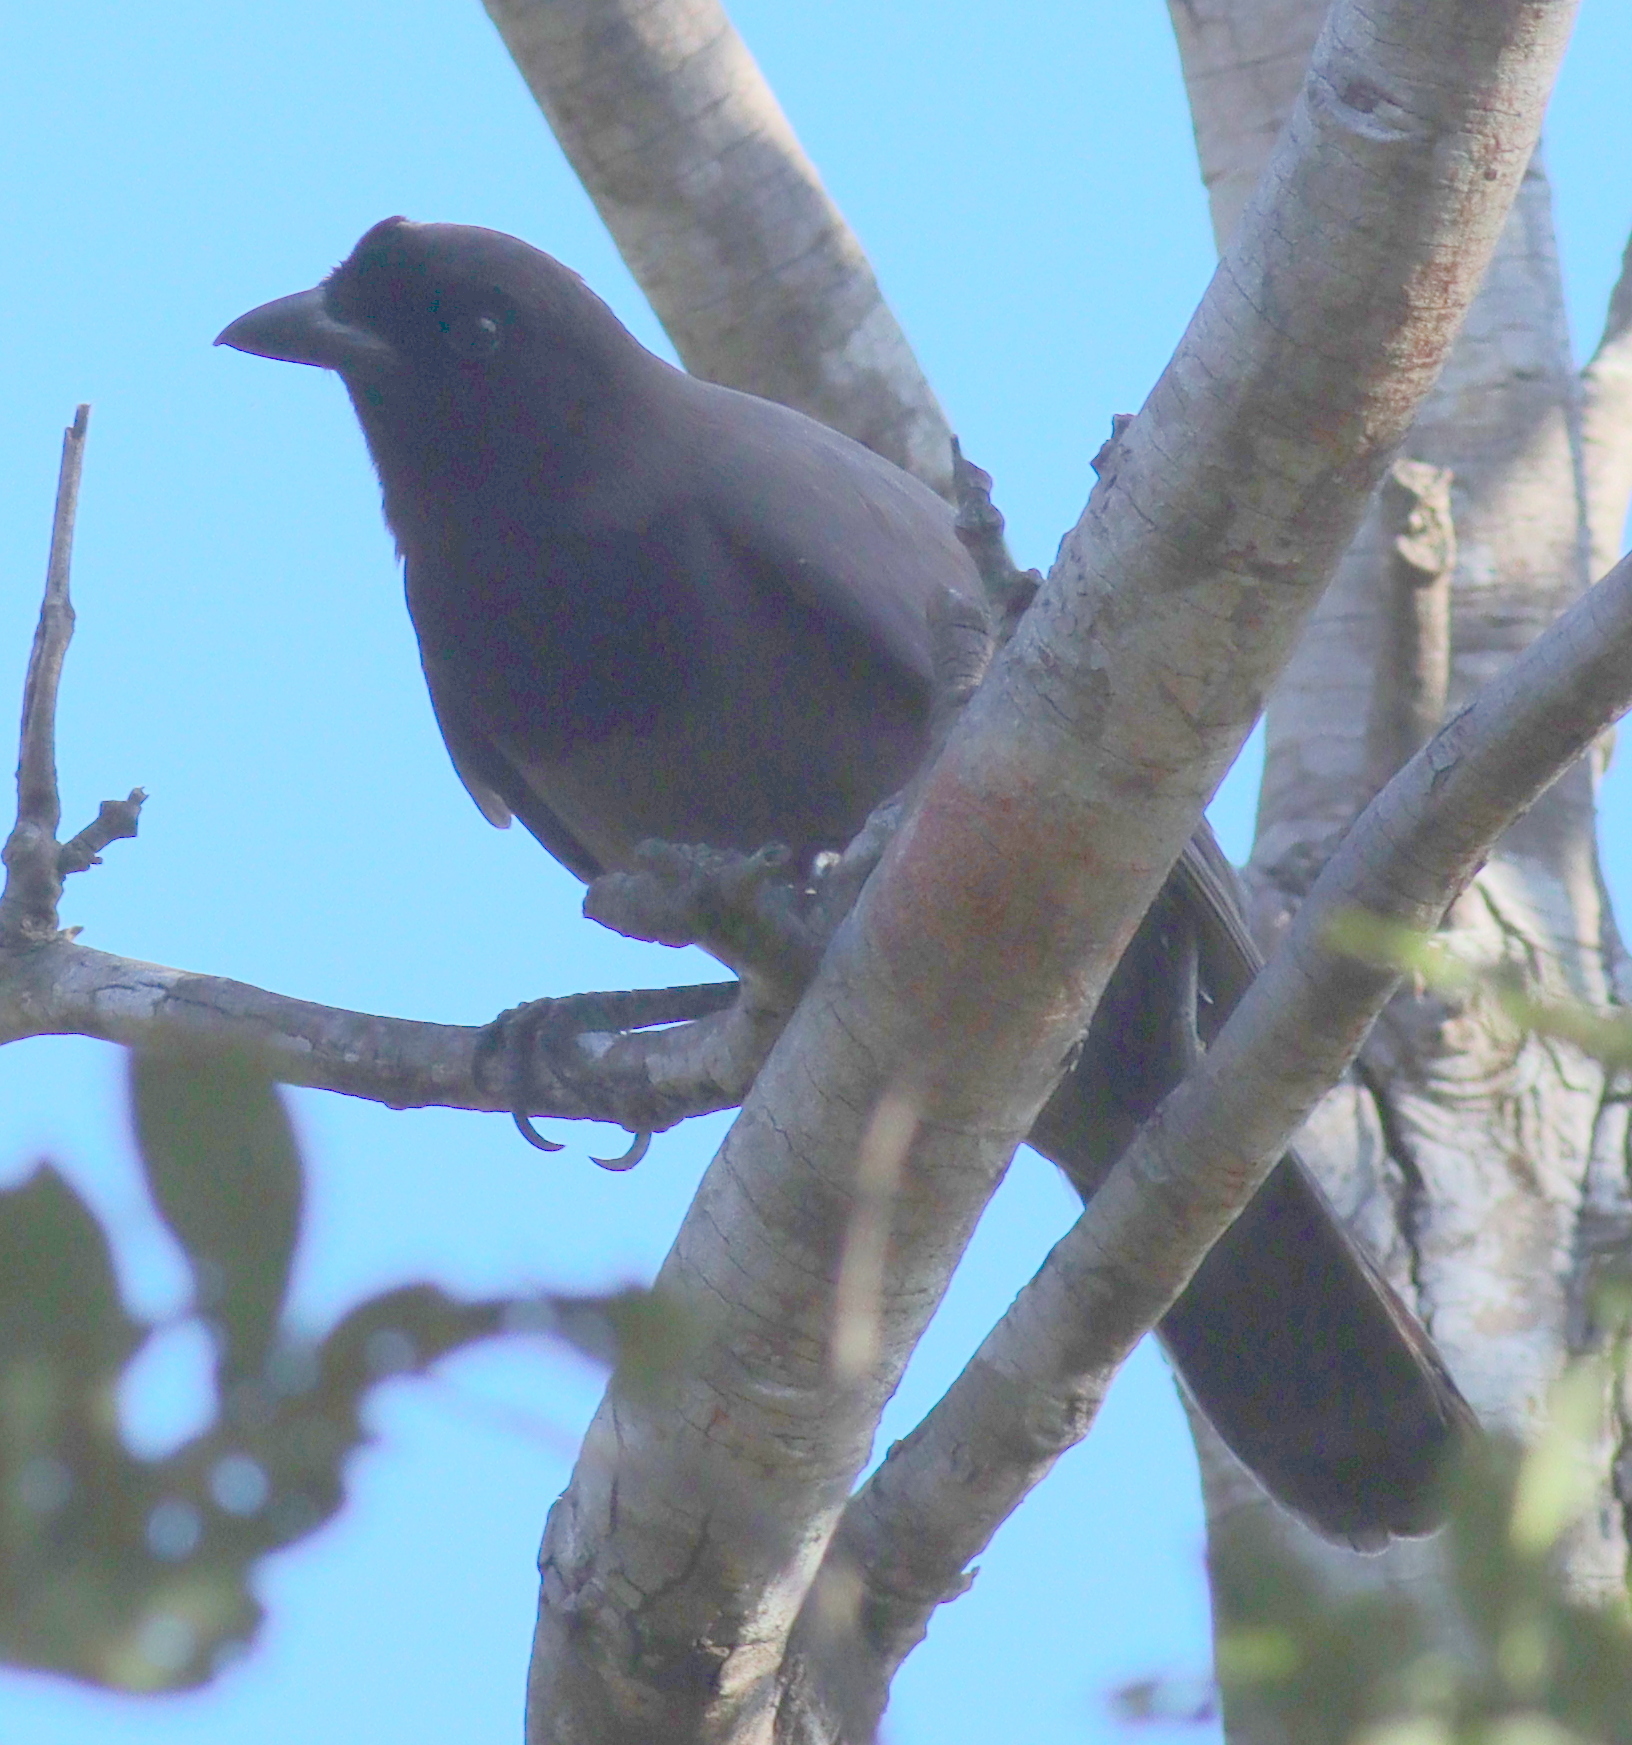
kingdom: Animalia
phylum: Chordata
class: Aves
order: Passeriformes
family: Corvidae
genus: Cyanocorax
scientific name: Cyanocorax cyanomelas
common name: Purplish jay
